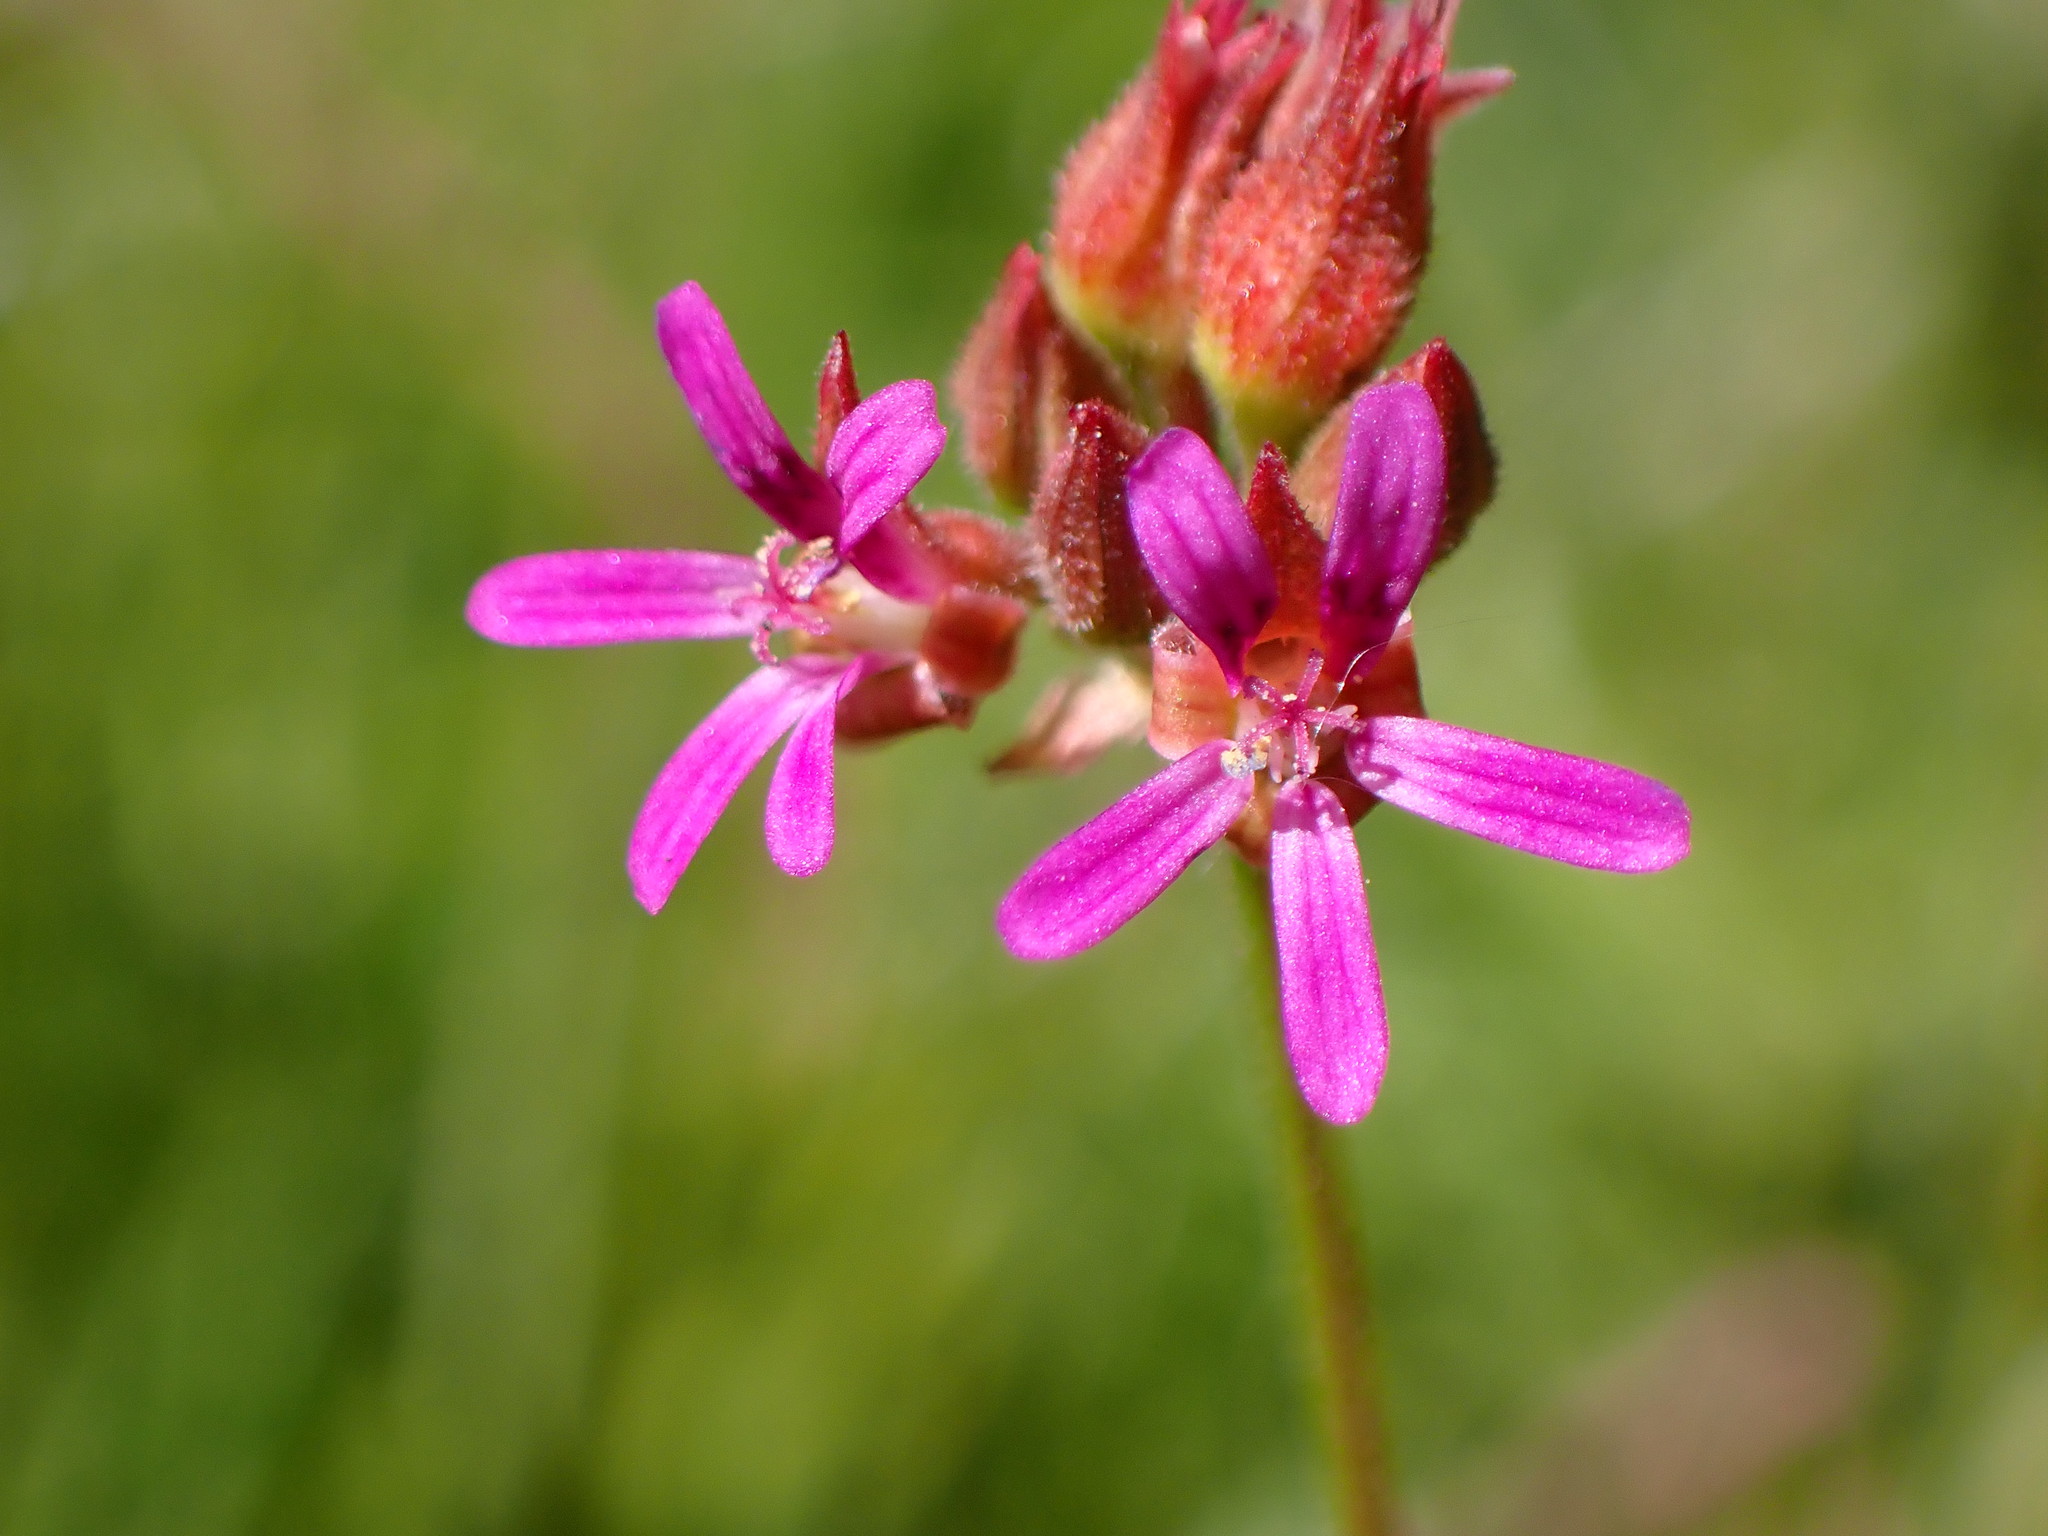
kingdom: Plantae
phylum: Tracheophyta
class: Magnoliopsida
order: Geraniales
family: Geraniaceae
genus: Pelargonium
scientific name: Pelargonium grossularioides
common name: Gooseberry geranium
